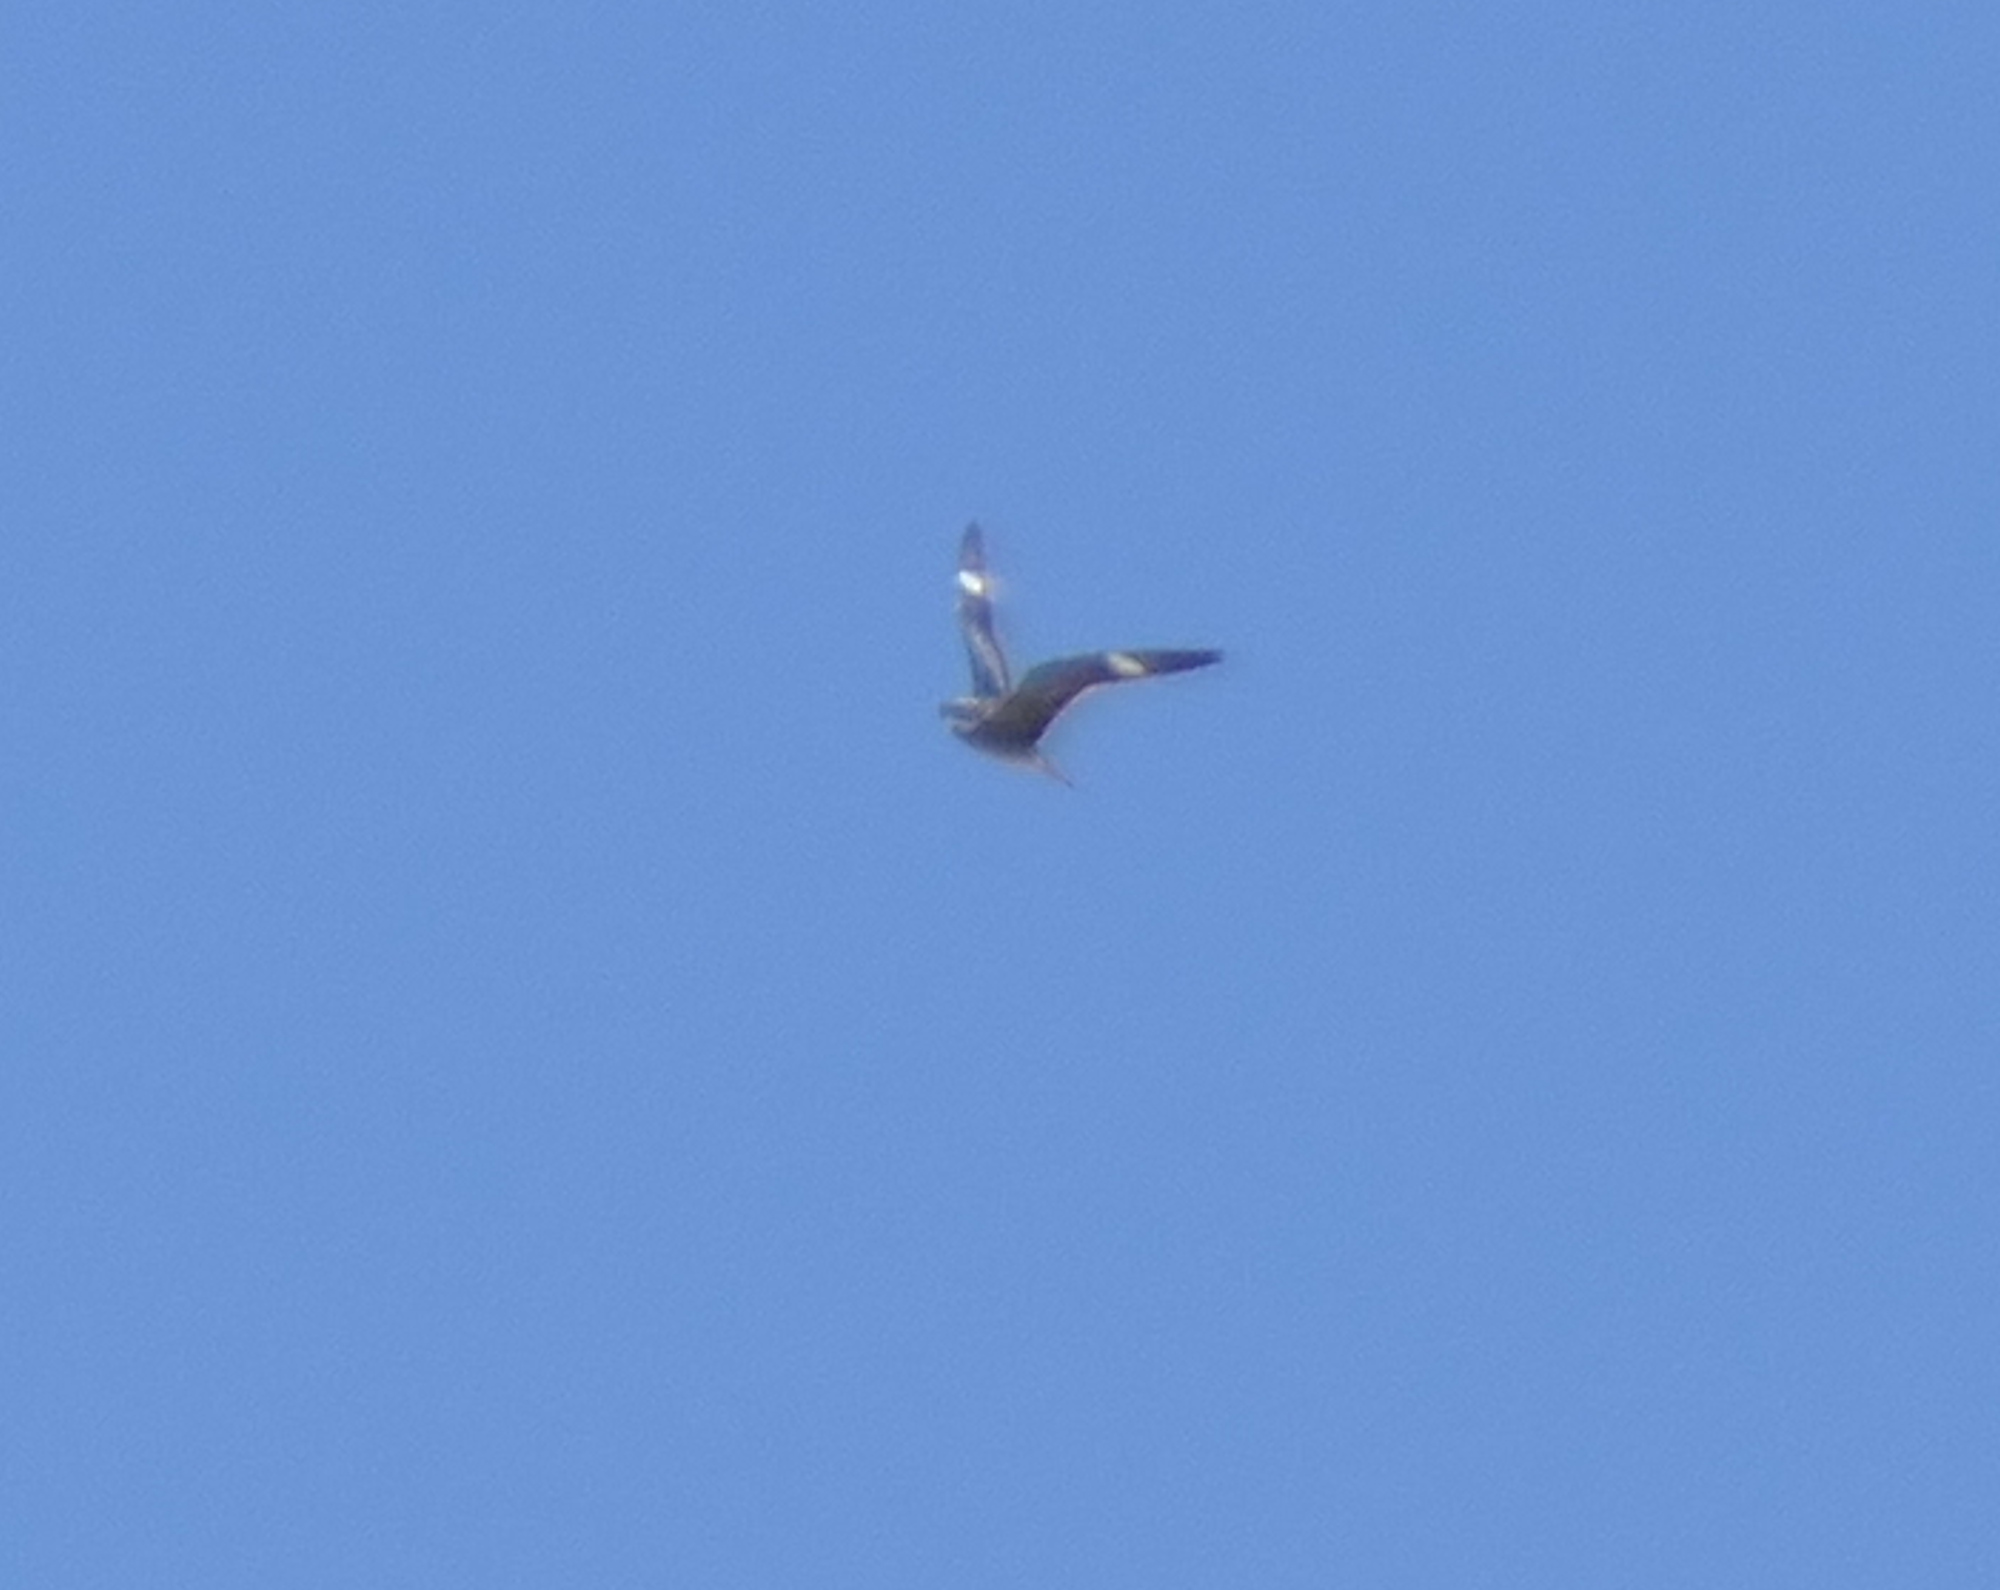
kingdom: Animalia
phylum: Chordata
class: Aves
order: Caprimulgiformes
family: Caprimulgidae
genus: Chordeiles
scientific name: Chordeiles minor
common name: Common nighthawk
